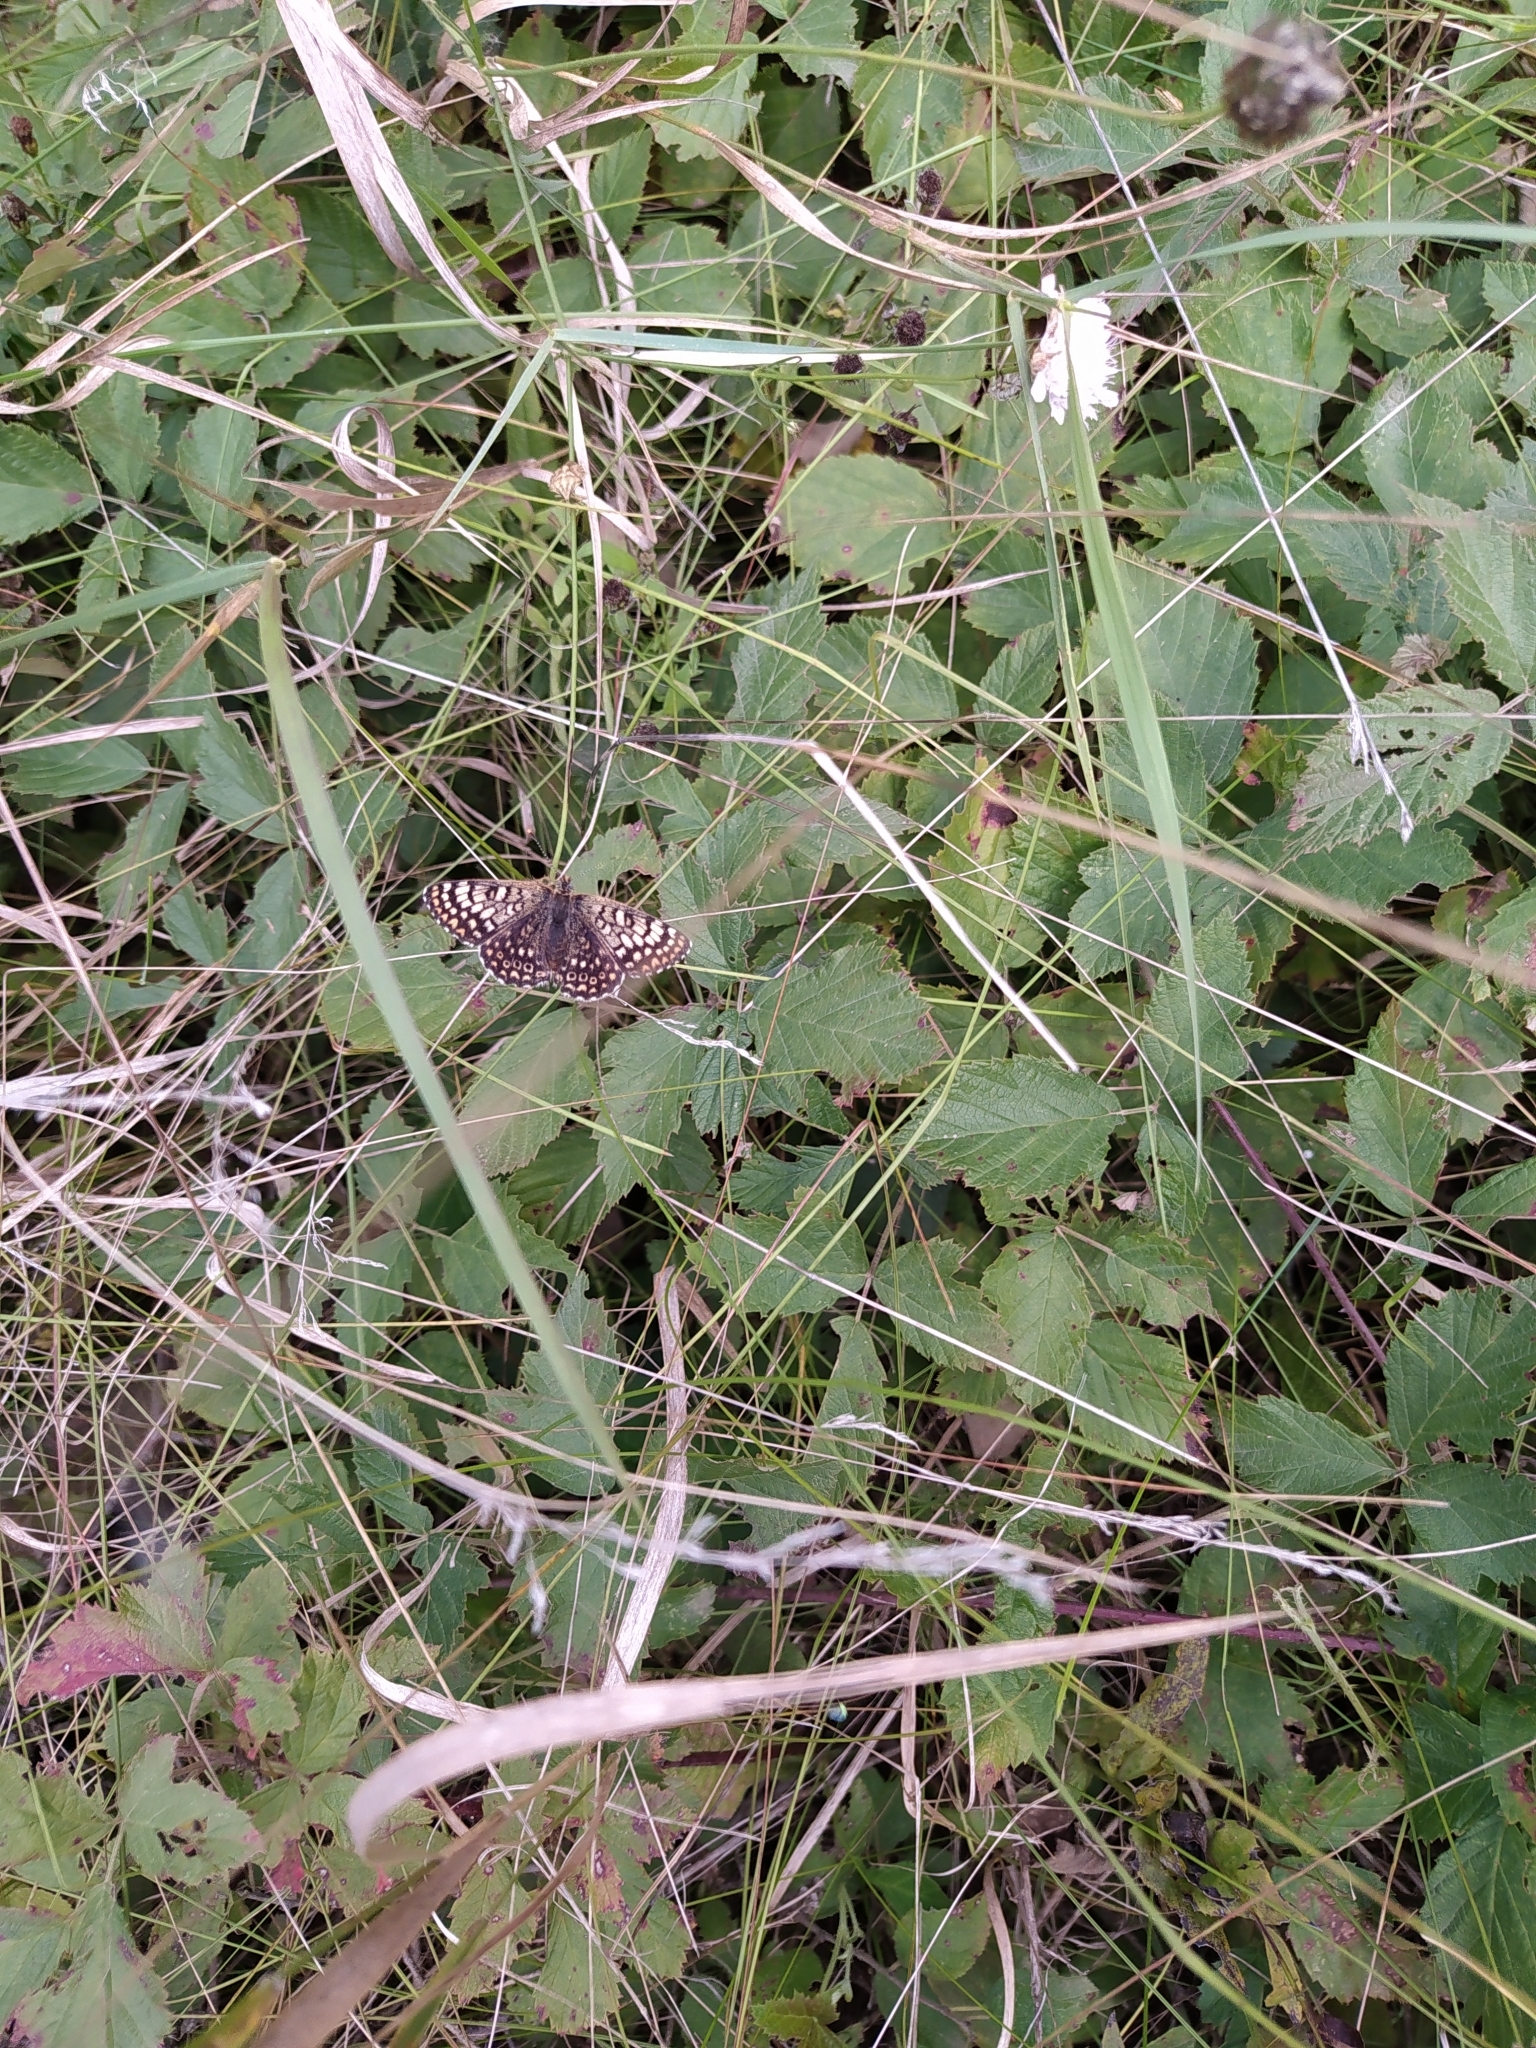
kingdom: Animalia
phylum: Arthropoda
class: Insecta
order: Lepidoptera
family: Nymphalidae
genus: Melitaea
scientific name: Melitaea cinxia
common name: Glanville fritillary
